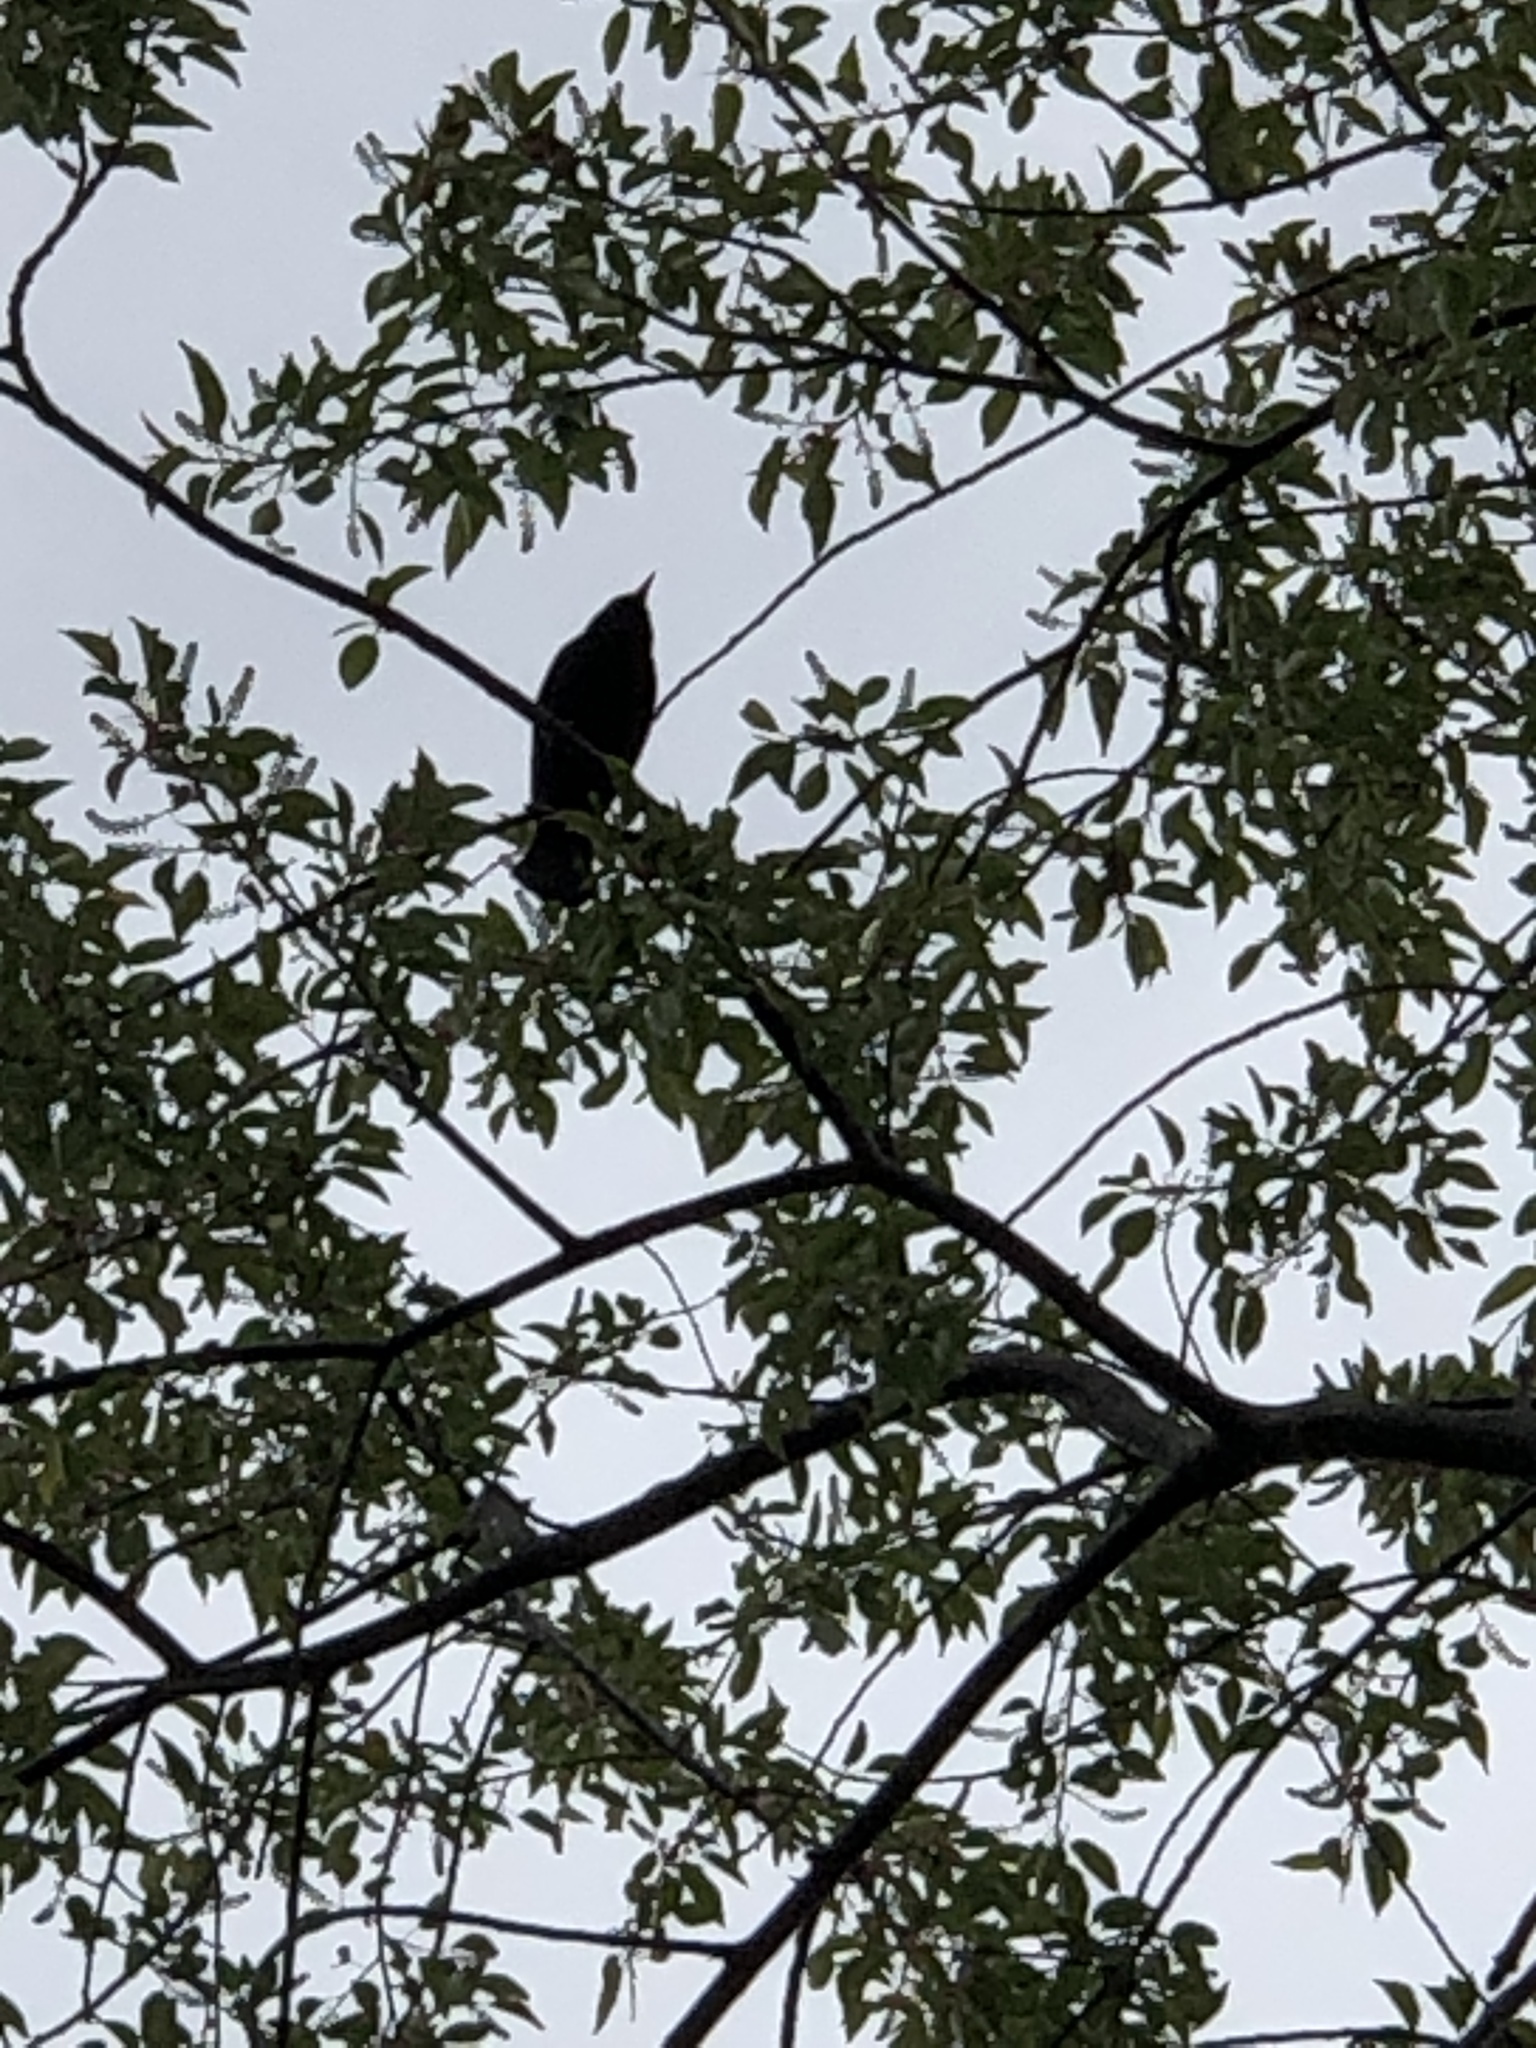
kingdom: Animalia
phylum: Chordata
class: Aves
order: Passeriformes
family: Sturnidae
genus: Sturnus
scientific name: Sturnus vulgaris
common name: Common starling
